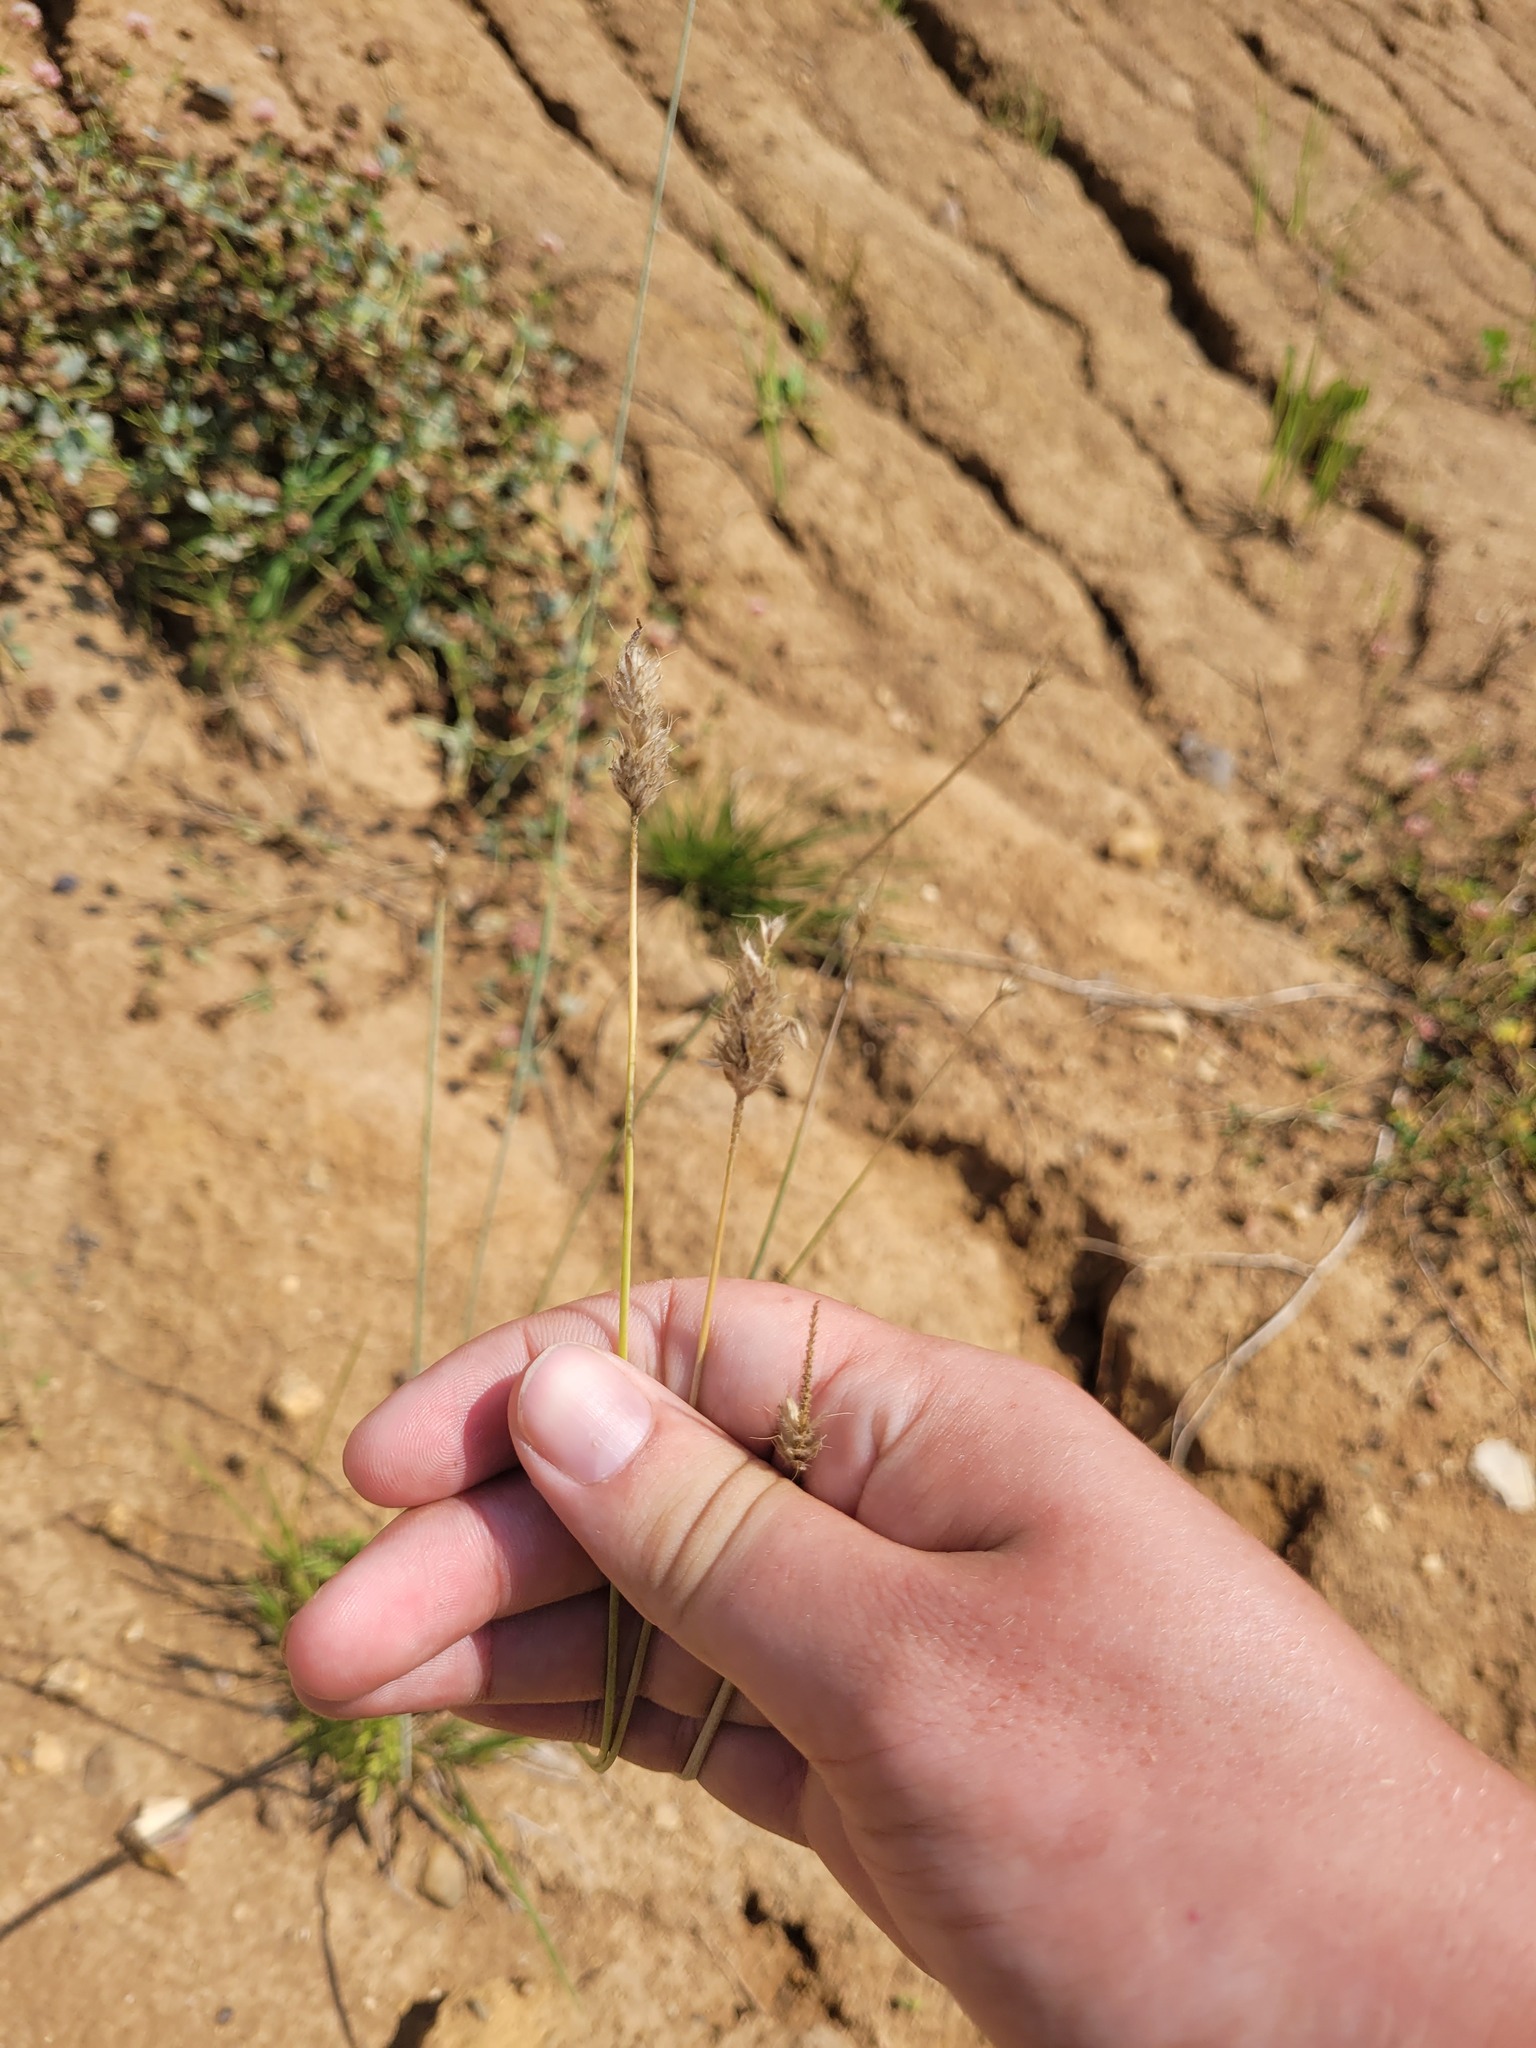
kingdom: Plantae
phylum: Tracheophyta
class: Liliopsida
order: Poales
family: Poaceae
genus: Alopecurus
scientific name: Alopecurus pratensis
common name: Meadow foxtail
